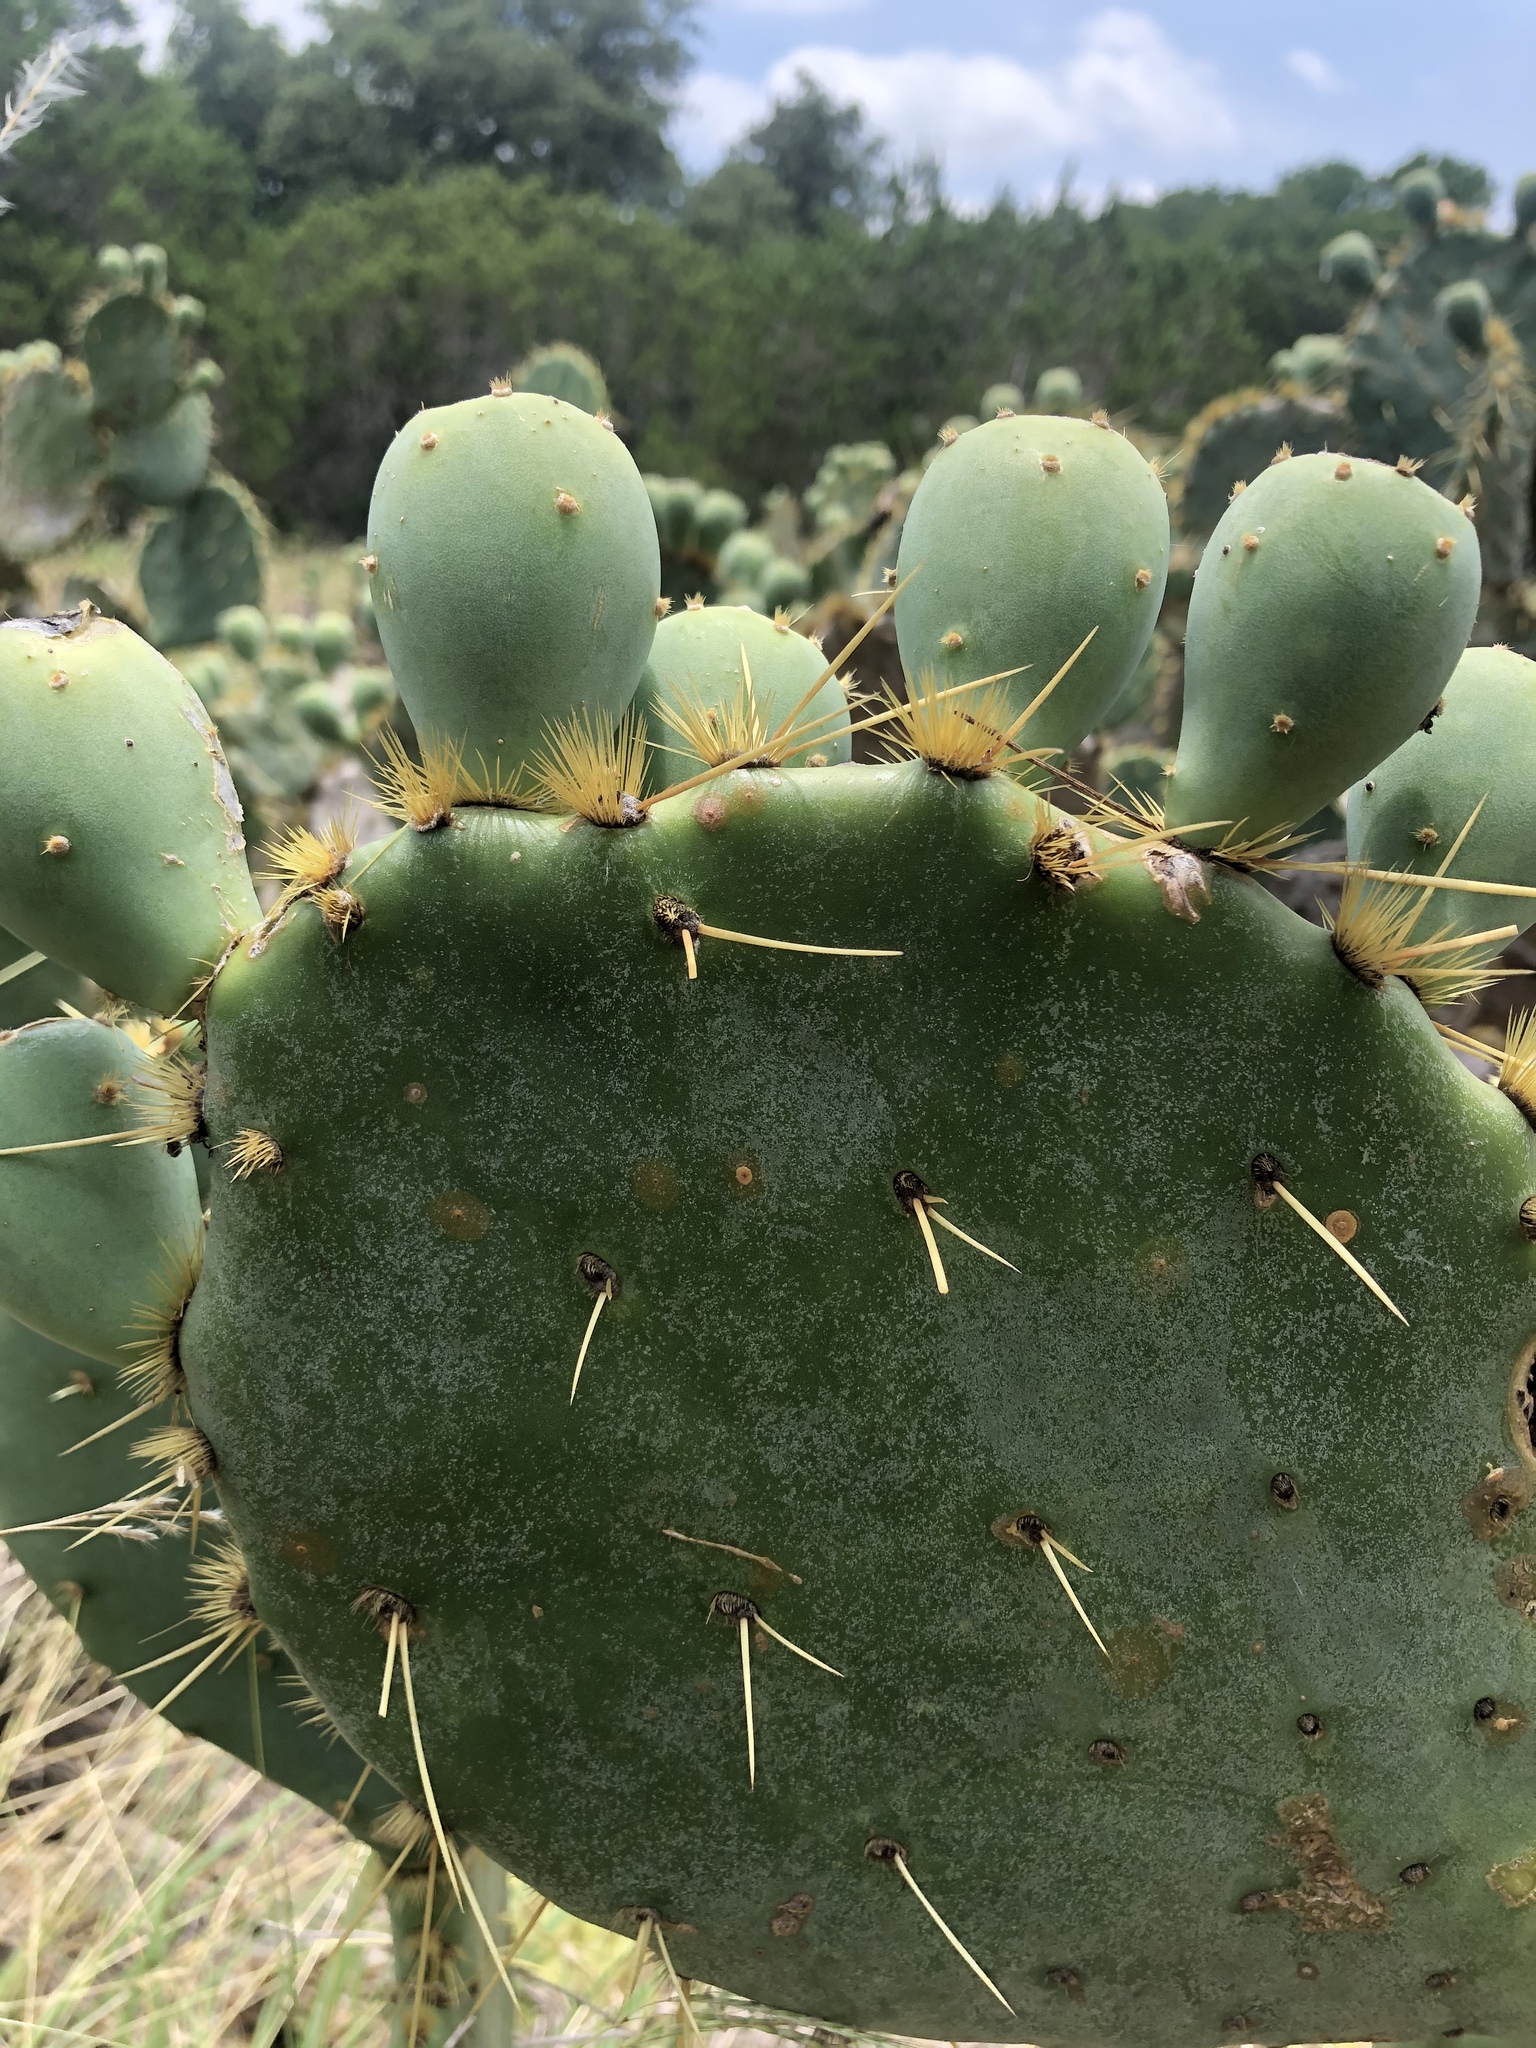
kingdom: Plantae
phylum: Tracheophyta
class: Magnoliopsida
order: Caryophyllales
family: Cactaceae
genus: Opuntia
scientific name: Opuntia engelmannii
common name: Cactus-apple
